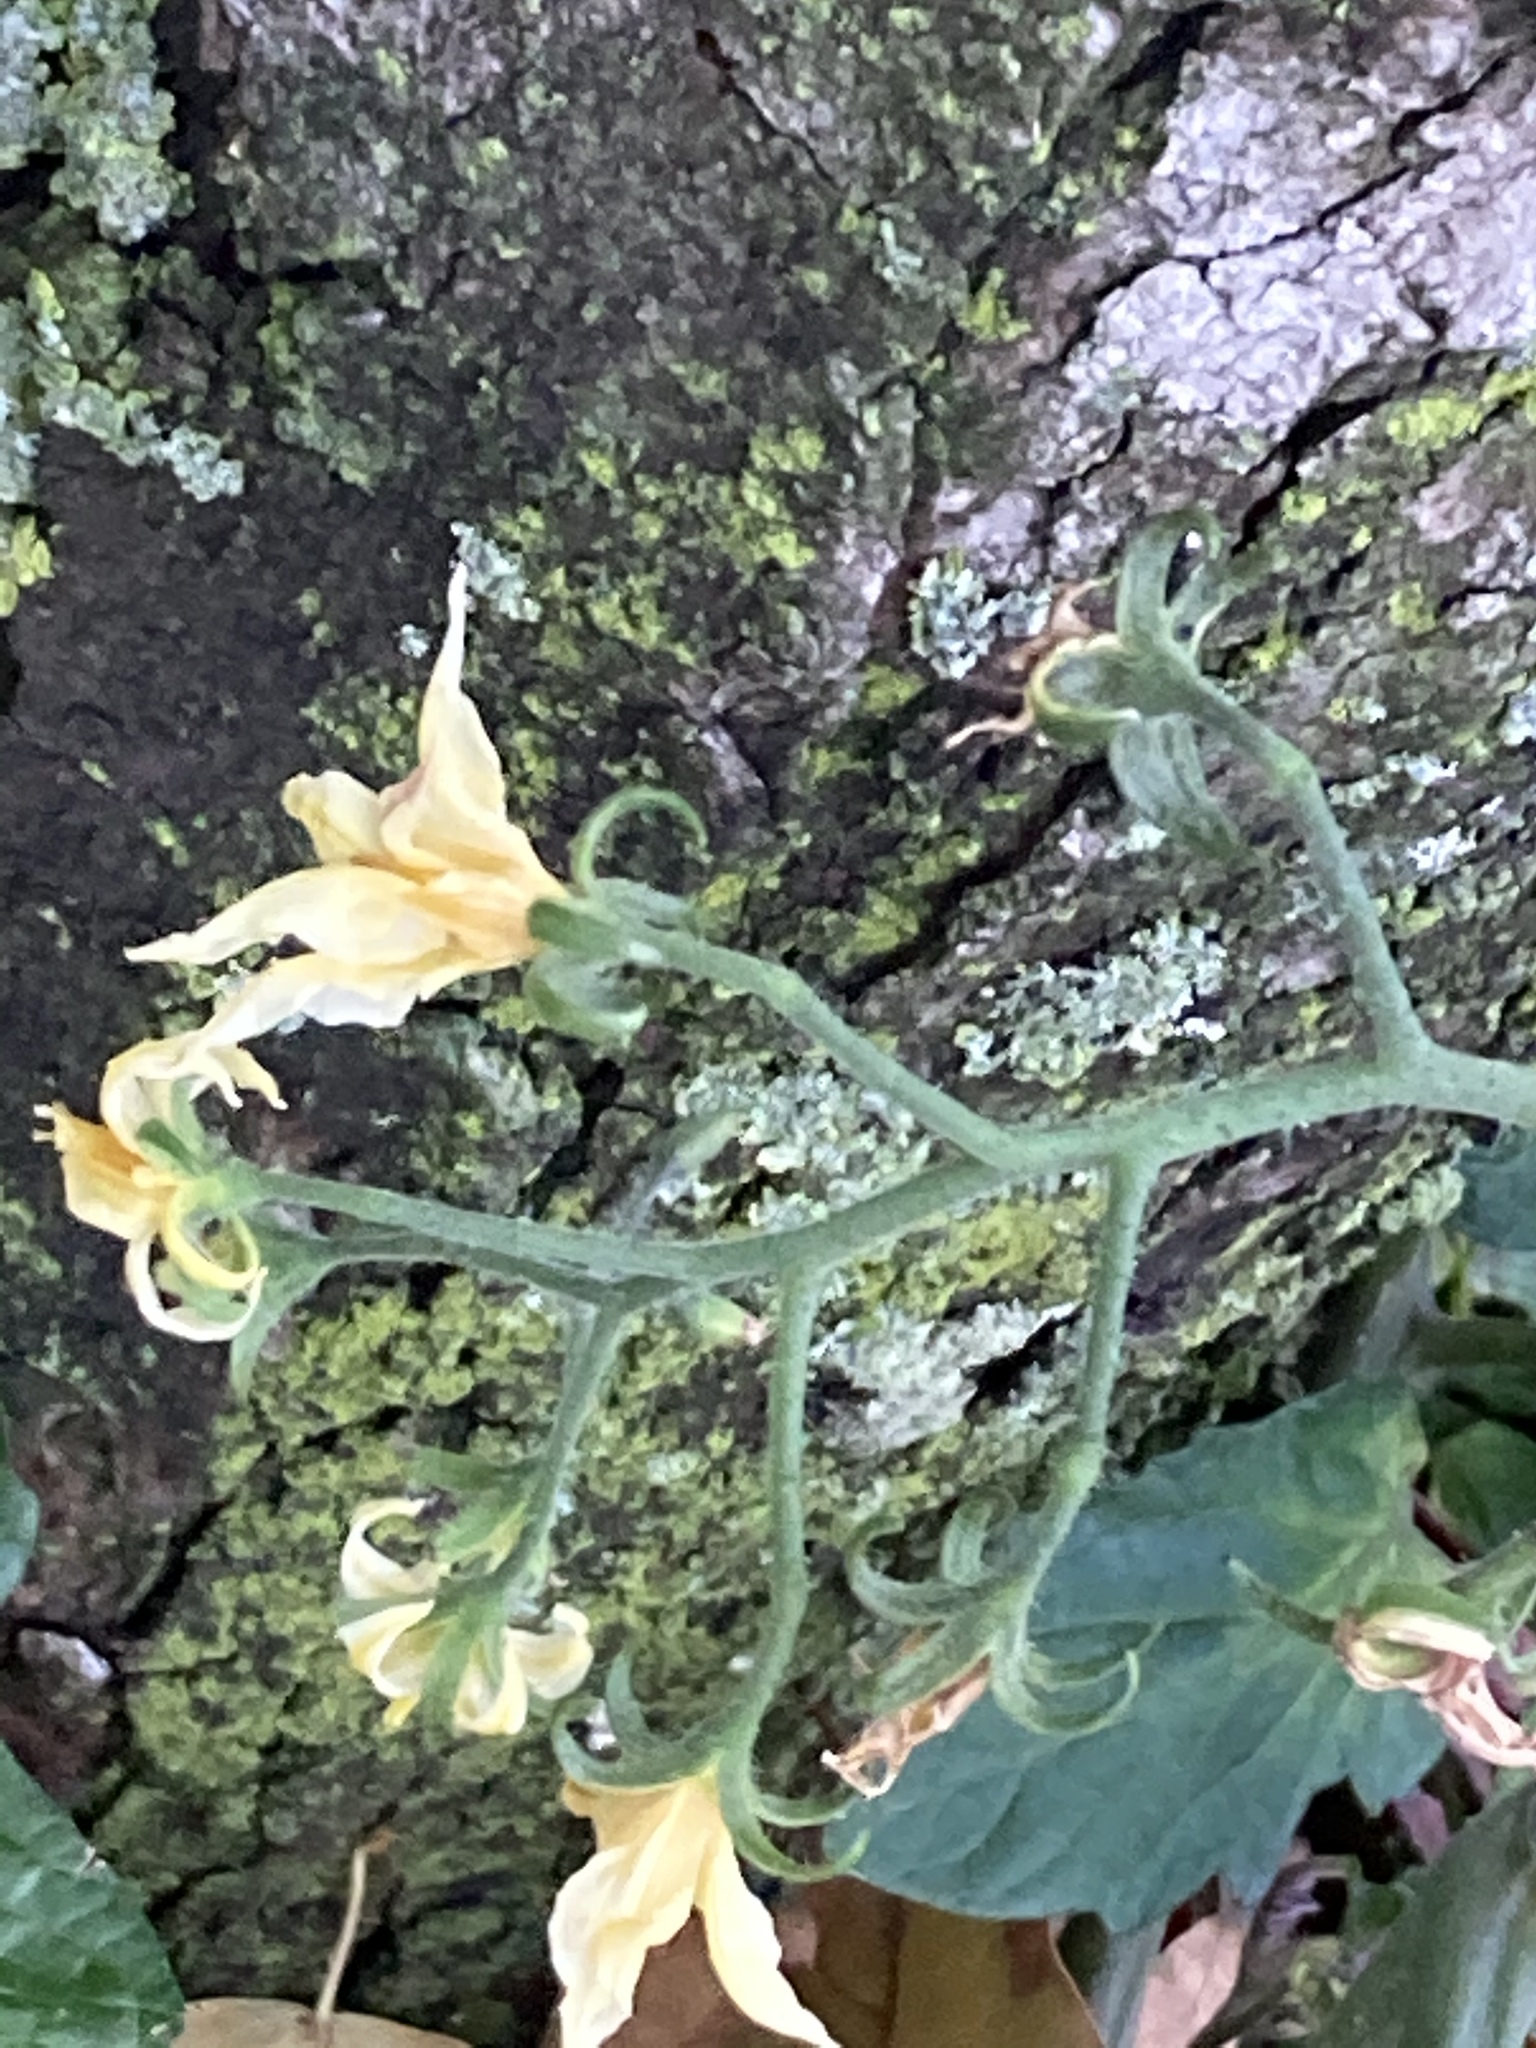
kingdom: Plantae
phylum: Tracheophyta
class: Magnoliopsida
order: Solanales
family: Solanaceae
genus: Solanum
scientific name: Solanum lycopersicum
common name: Garden tomato
